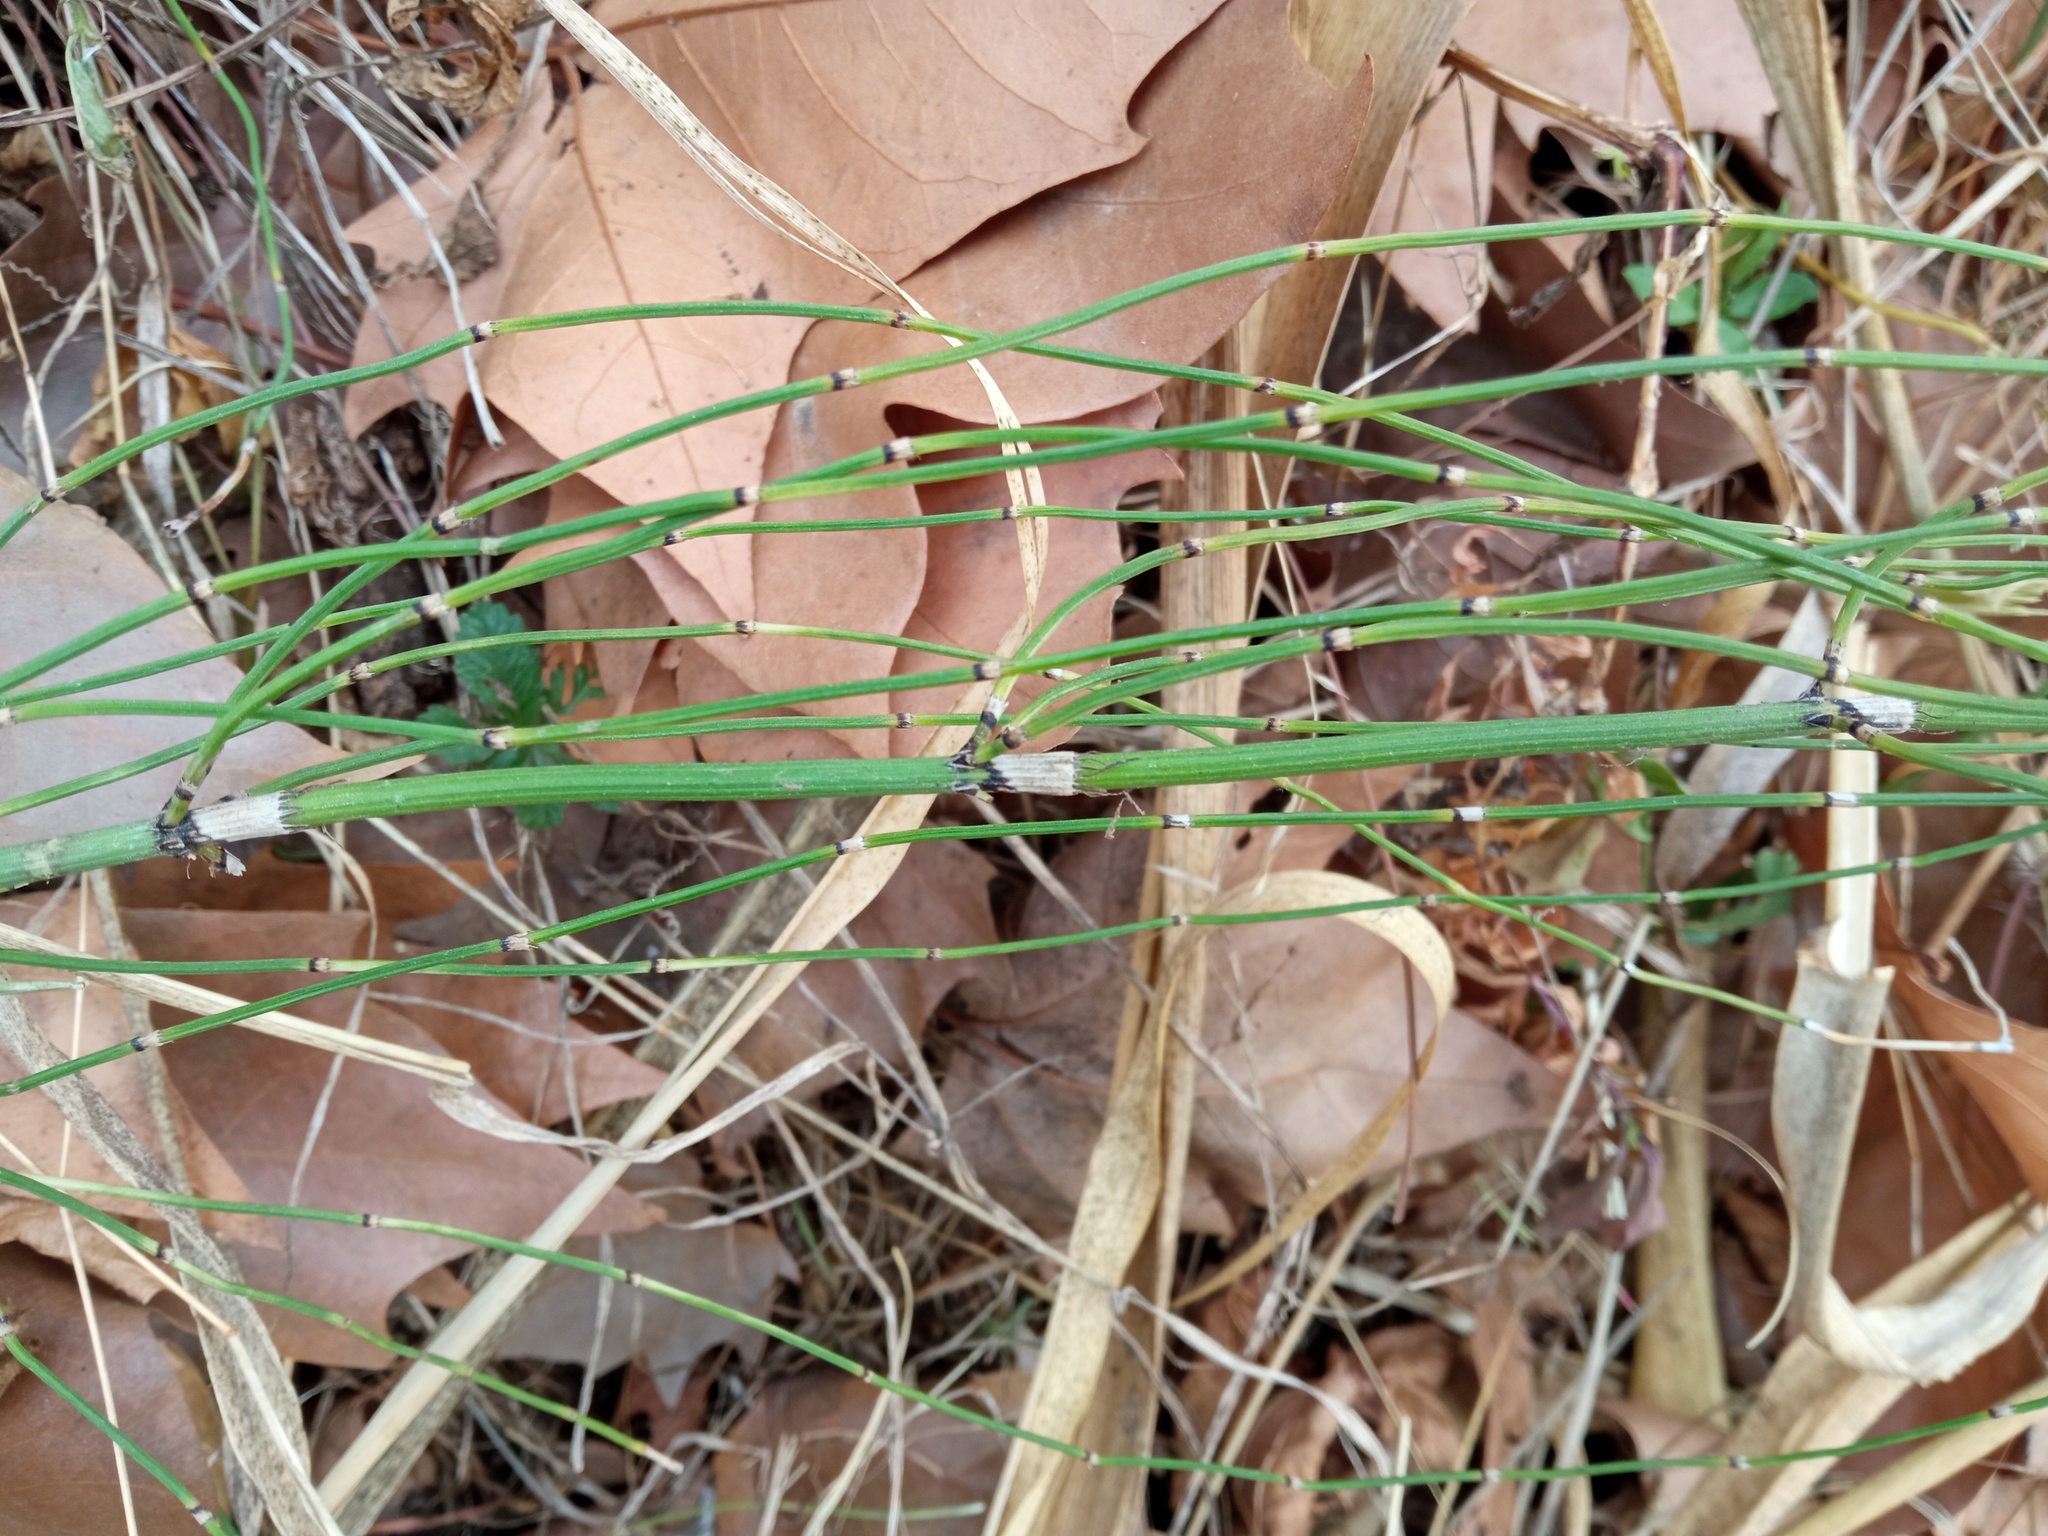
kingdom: Plantae
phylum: Tracheophyta
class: Polypodiopsida
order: Equisetales
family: Equisetaceae
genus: Equisetum
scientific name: Equisetum ramosissimum
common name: Branched horsetail
